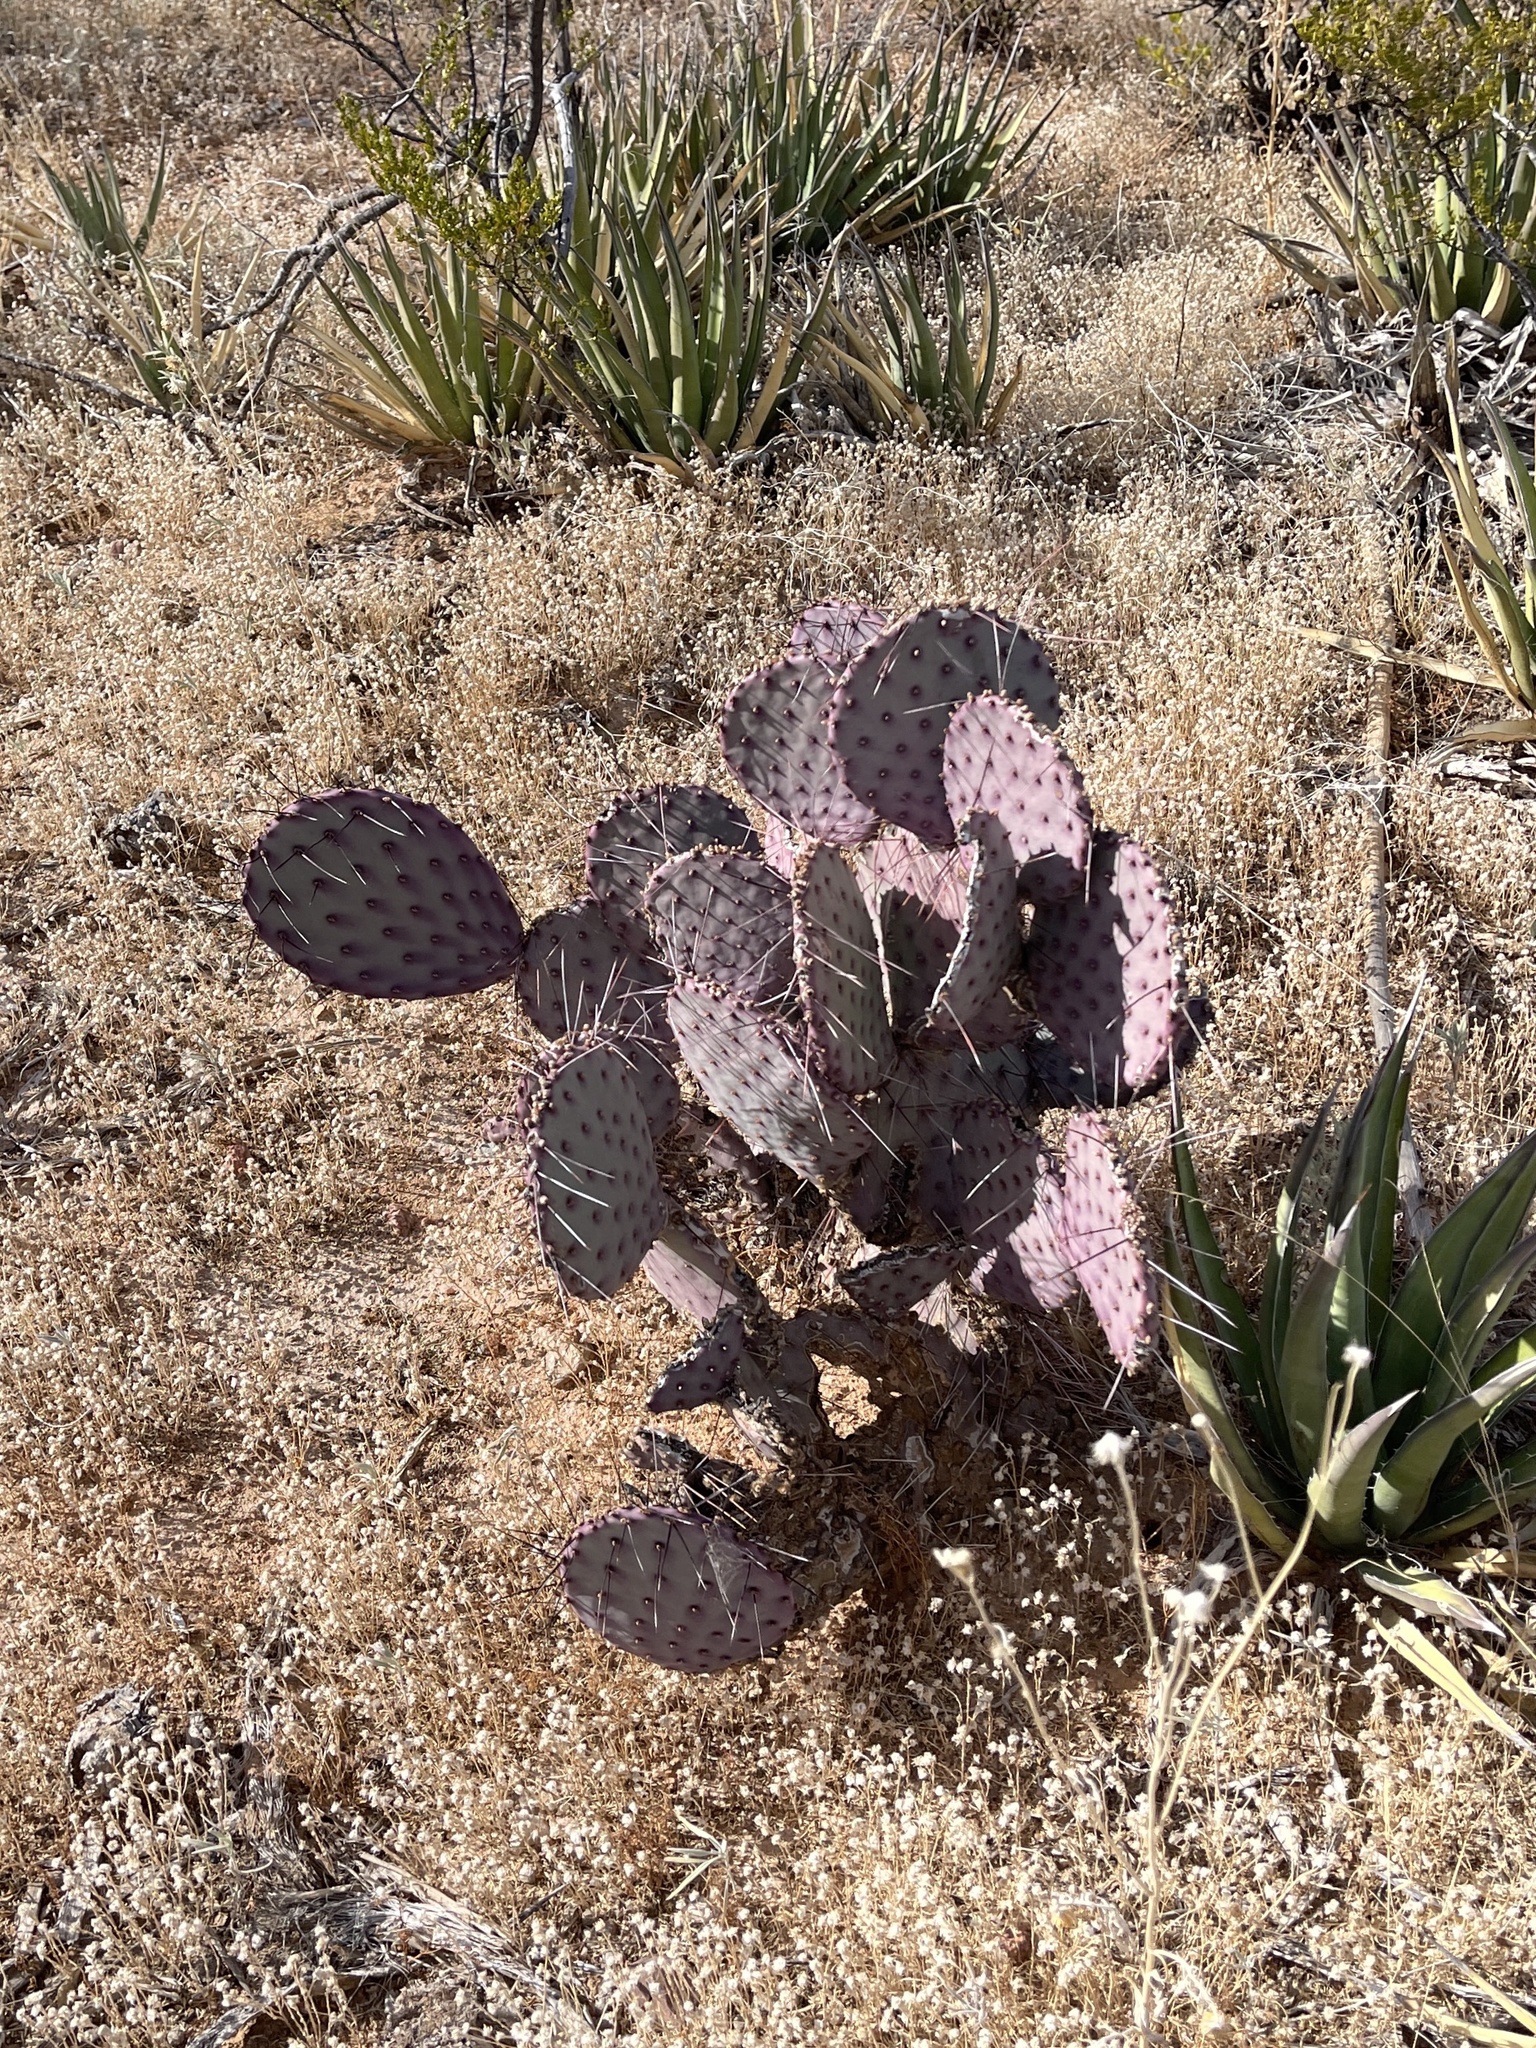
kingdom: Plantae
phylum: Tracheophyta
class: Magnoliopsida
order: Caryophyllales
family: Cactaceae
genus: Opuntia
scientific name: Opuntia macrocentra
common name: Purple prickly-pear
